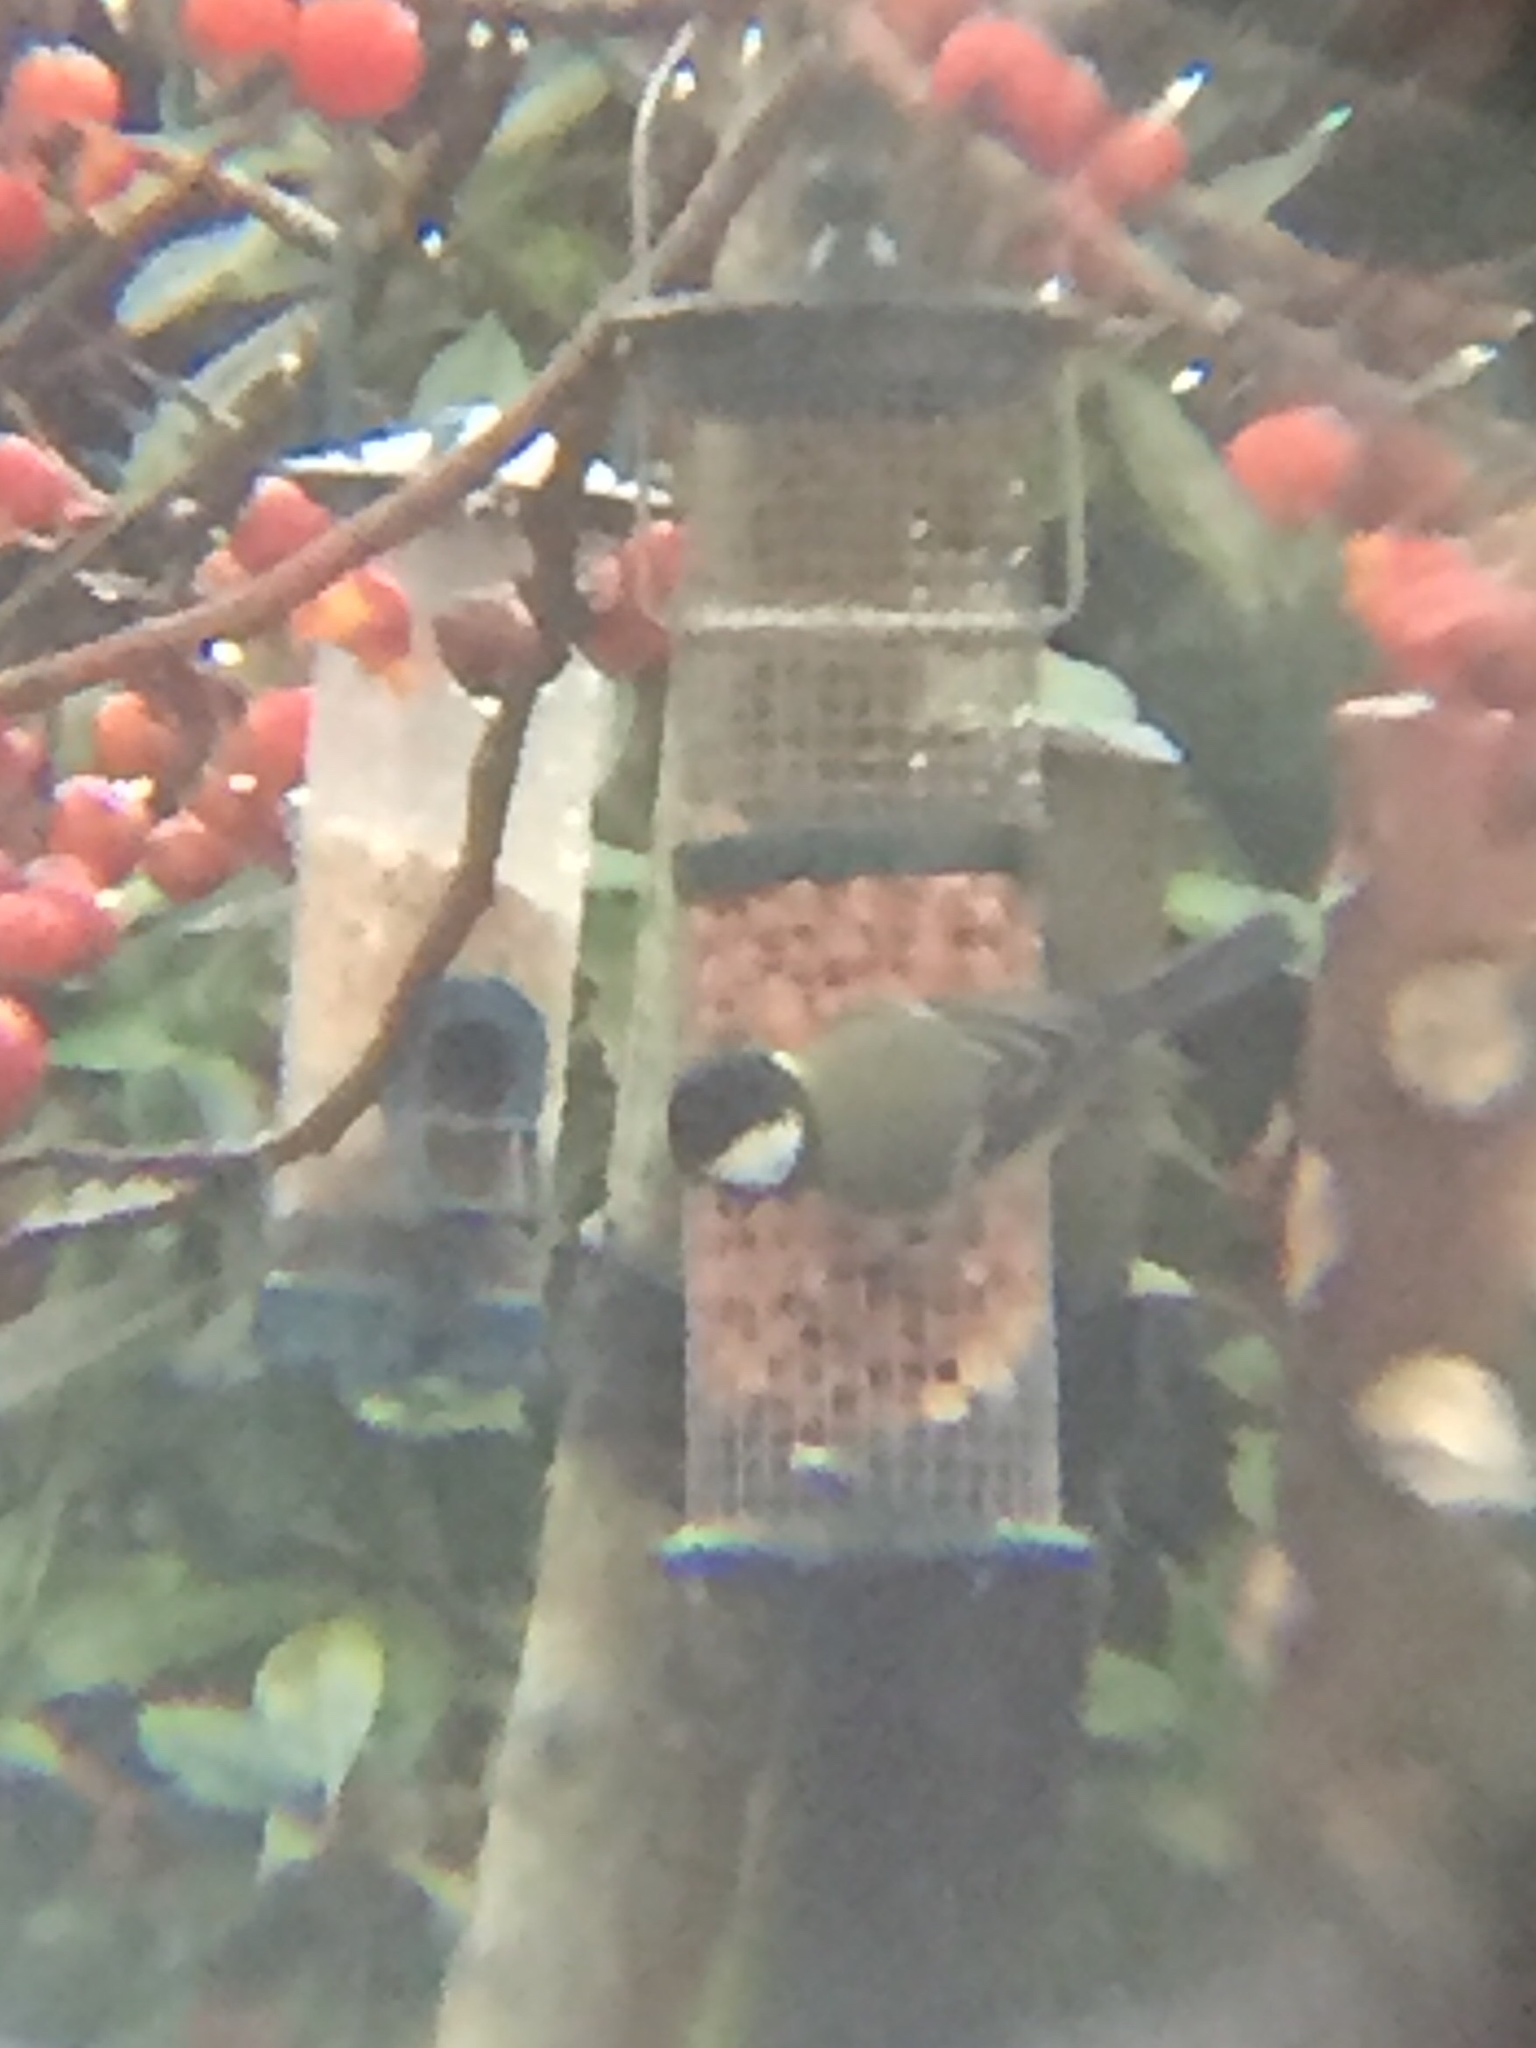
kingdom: Animalia
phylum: Chordata
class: Aves
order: Passeriformes
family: Paridae
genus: Parus
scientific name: Parus major
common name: Great tit
